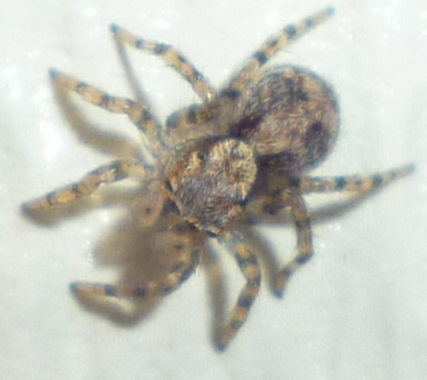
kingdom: Animalia
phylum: Arthropoda
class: Arachnida
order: Araneae
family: Salticidae
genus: Naphrys
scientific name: Naphrys pulex
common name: Flea jumping spider
